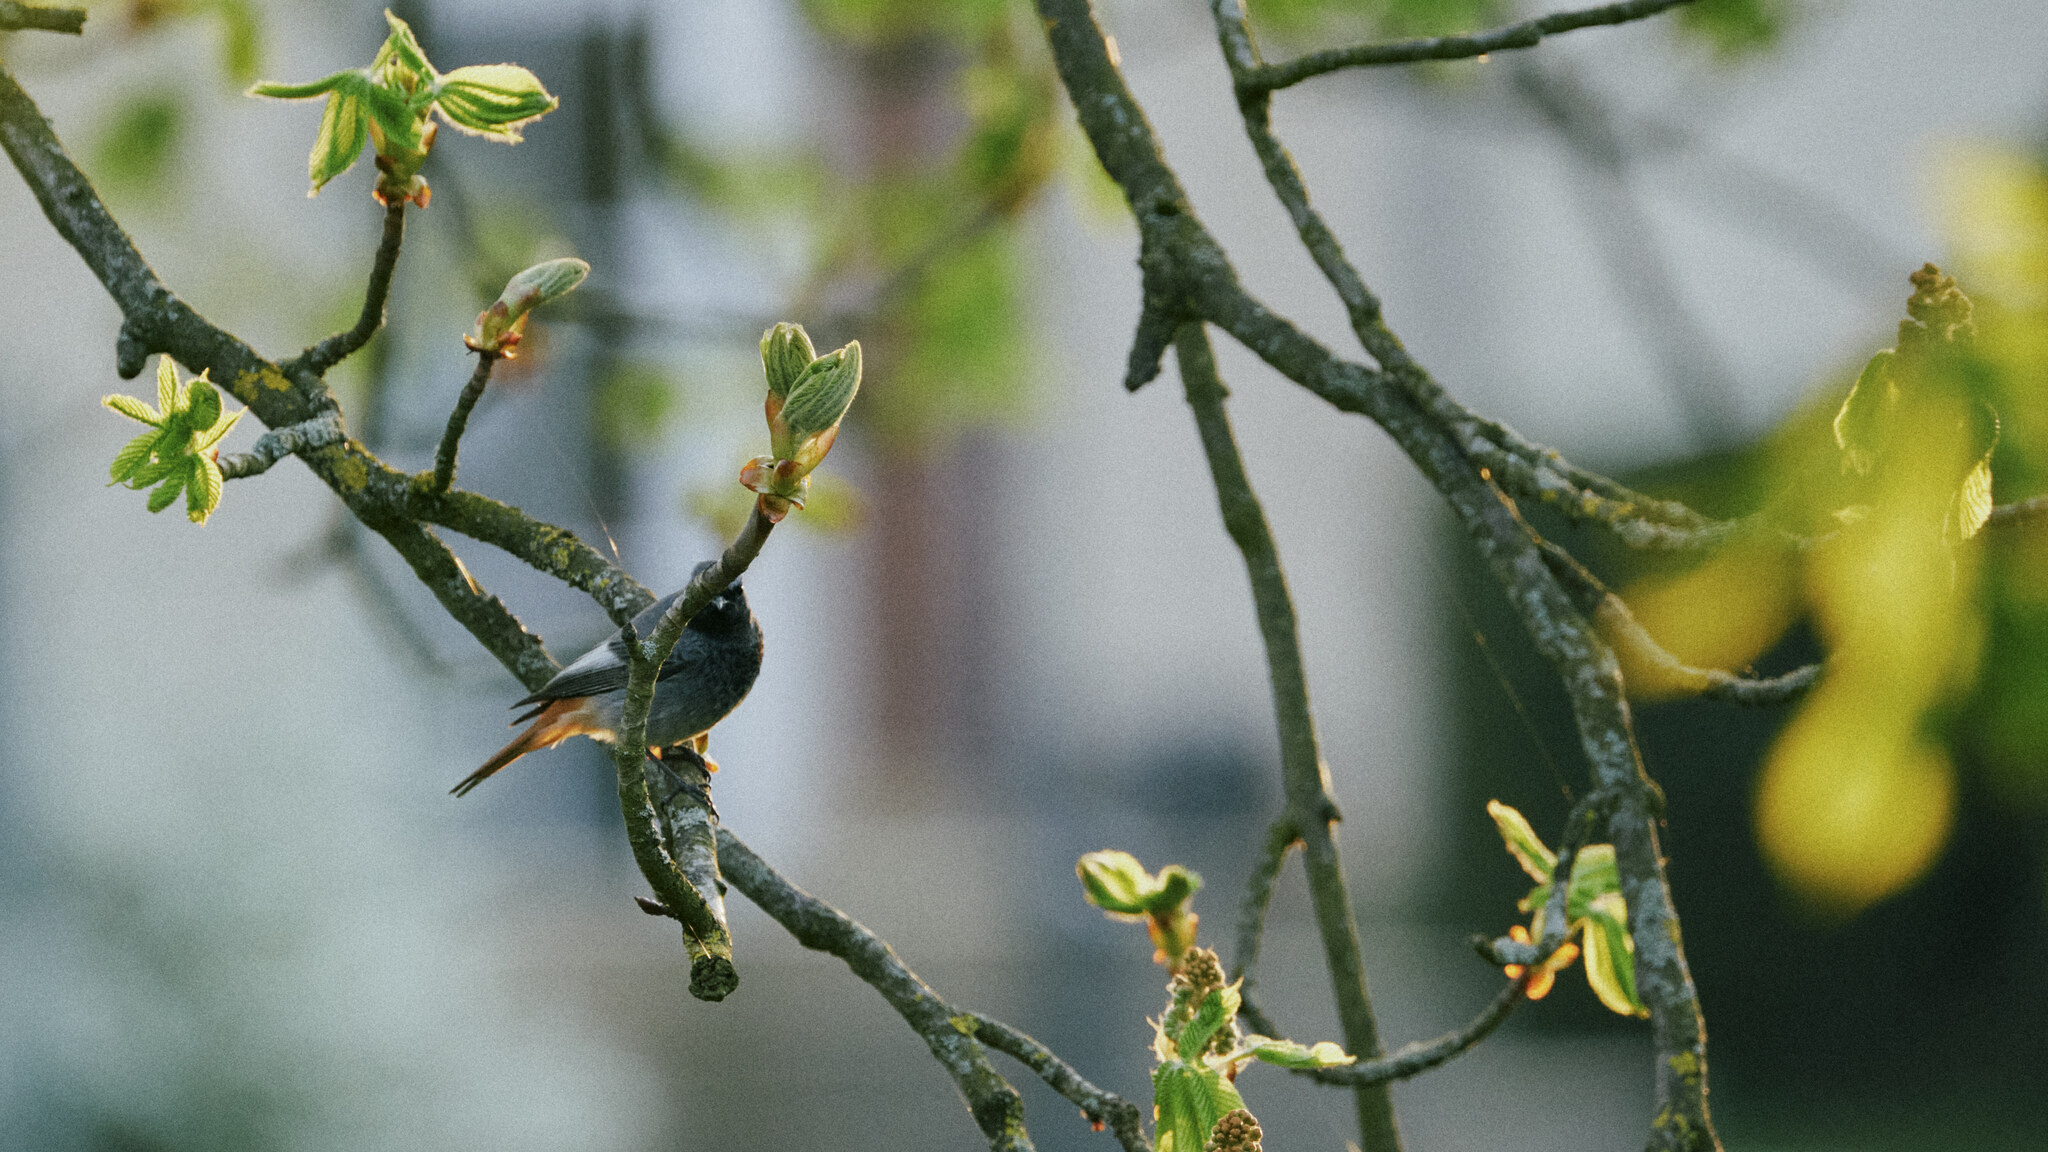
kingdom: Animalia
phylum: Chordata
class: Aves
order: Passeriformes
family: Muscicapidae
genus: Phoenicurus
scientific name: Phoenicurus ochruros
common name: Black redstart
